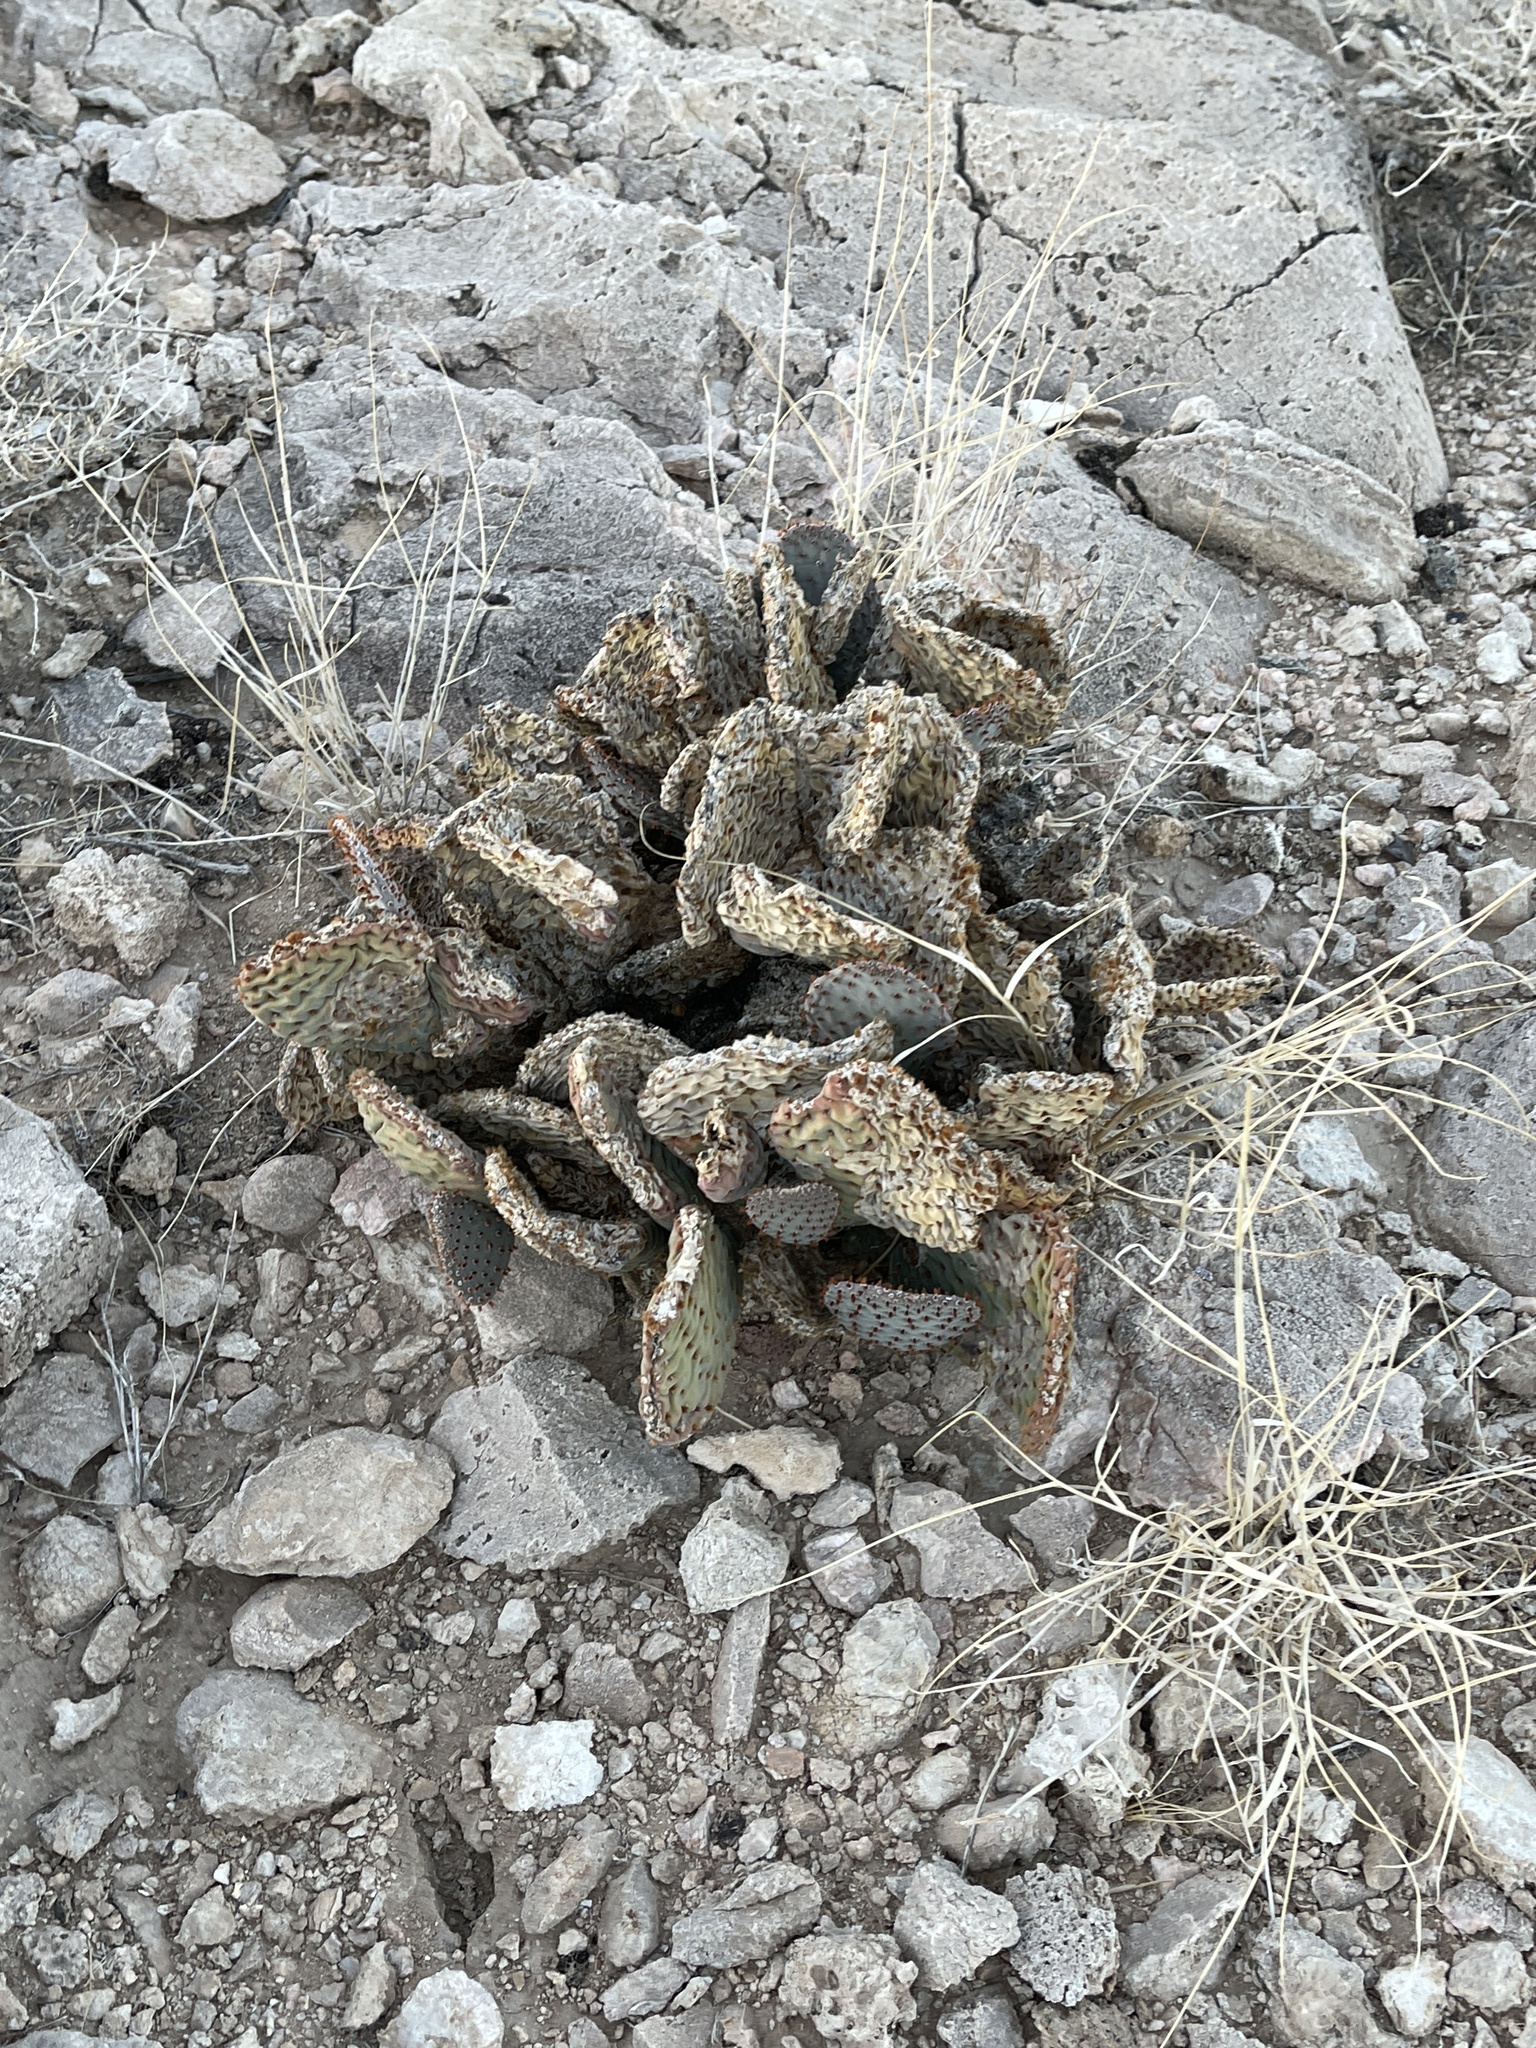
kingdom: Plantae
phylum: Tracheophyta
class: Magnoliopsida
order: Caryophyllales
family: Cactaceae
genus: Opuntia
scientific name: Opuntia basilaris
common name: Beavertail prickly-pear
